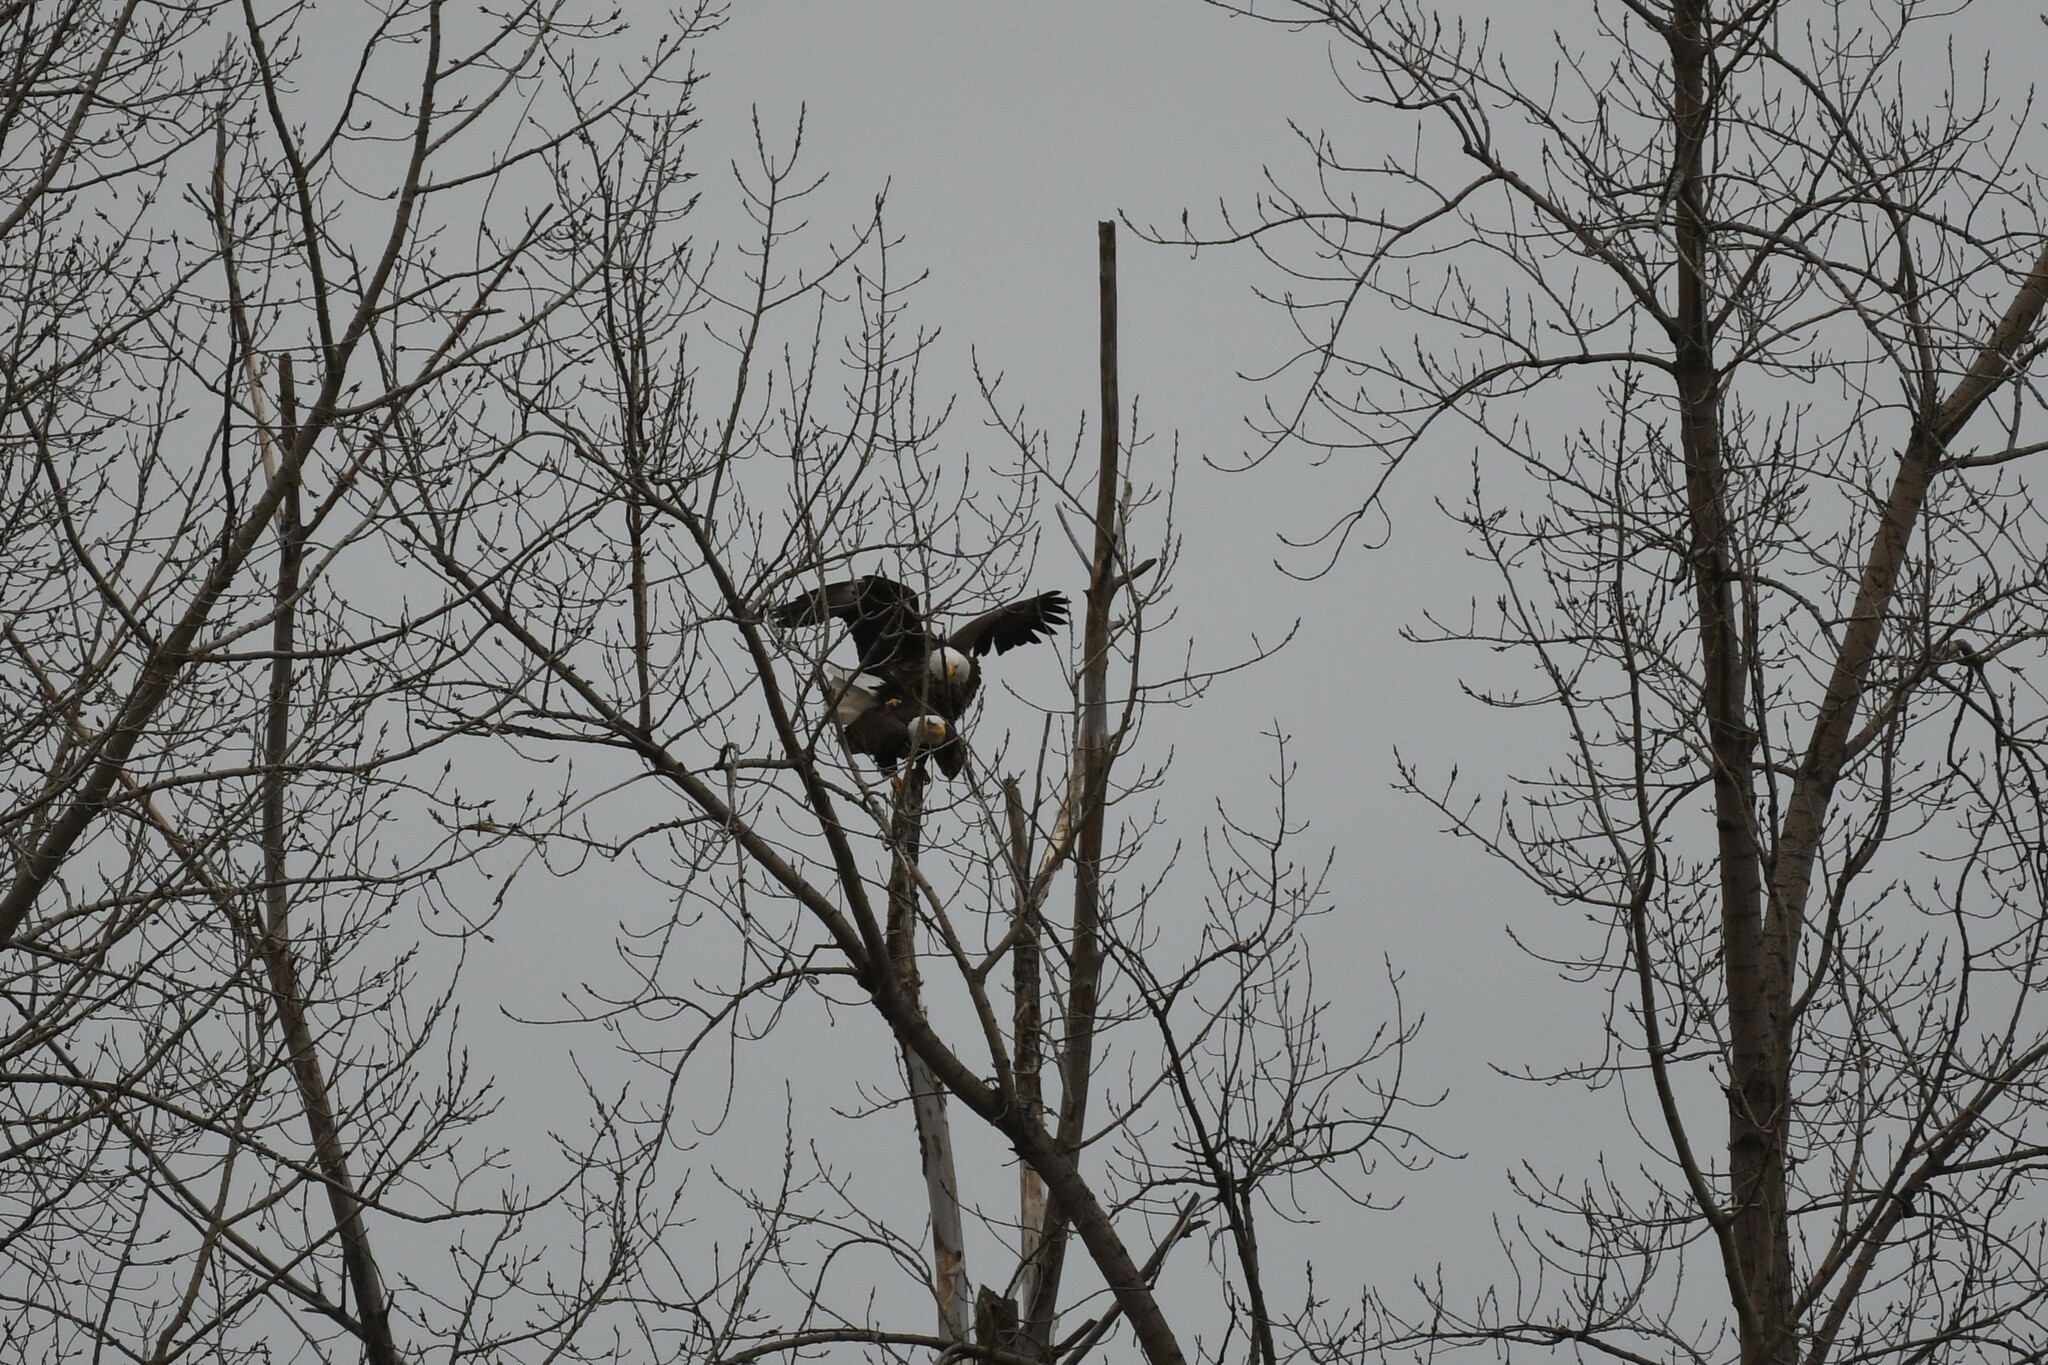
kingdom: Animalia
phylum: Chordata
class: Aves
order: Accipitriformes
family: Accipitridae
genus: Haliaeetus
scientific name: Haliaeetus leucocephalus
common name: Bald eagle
